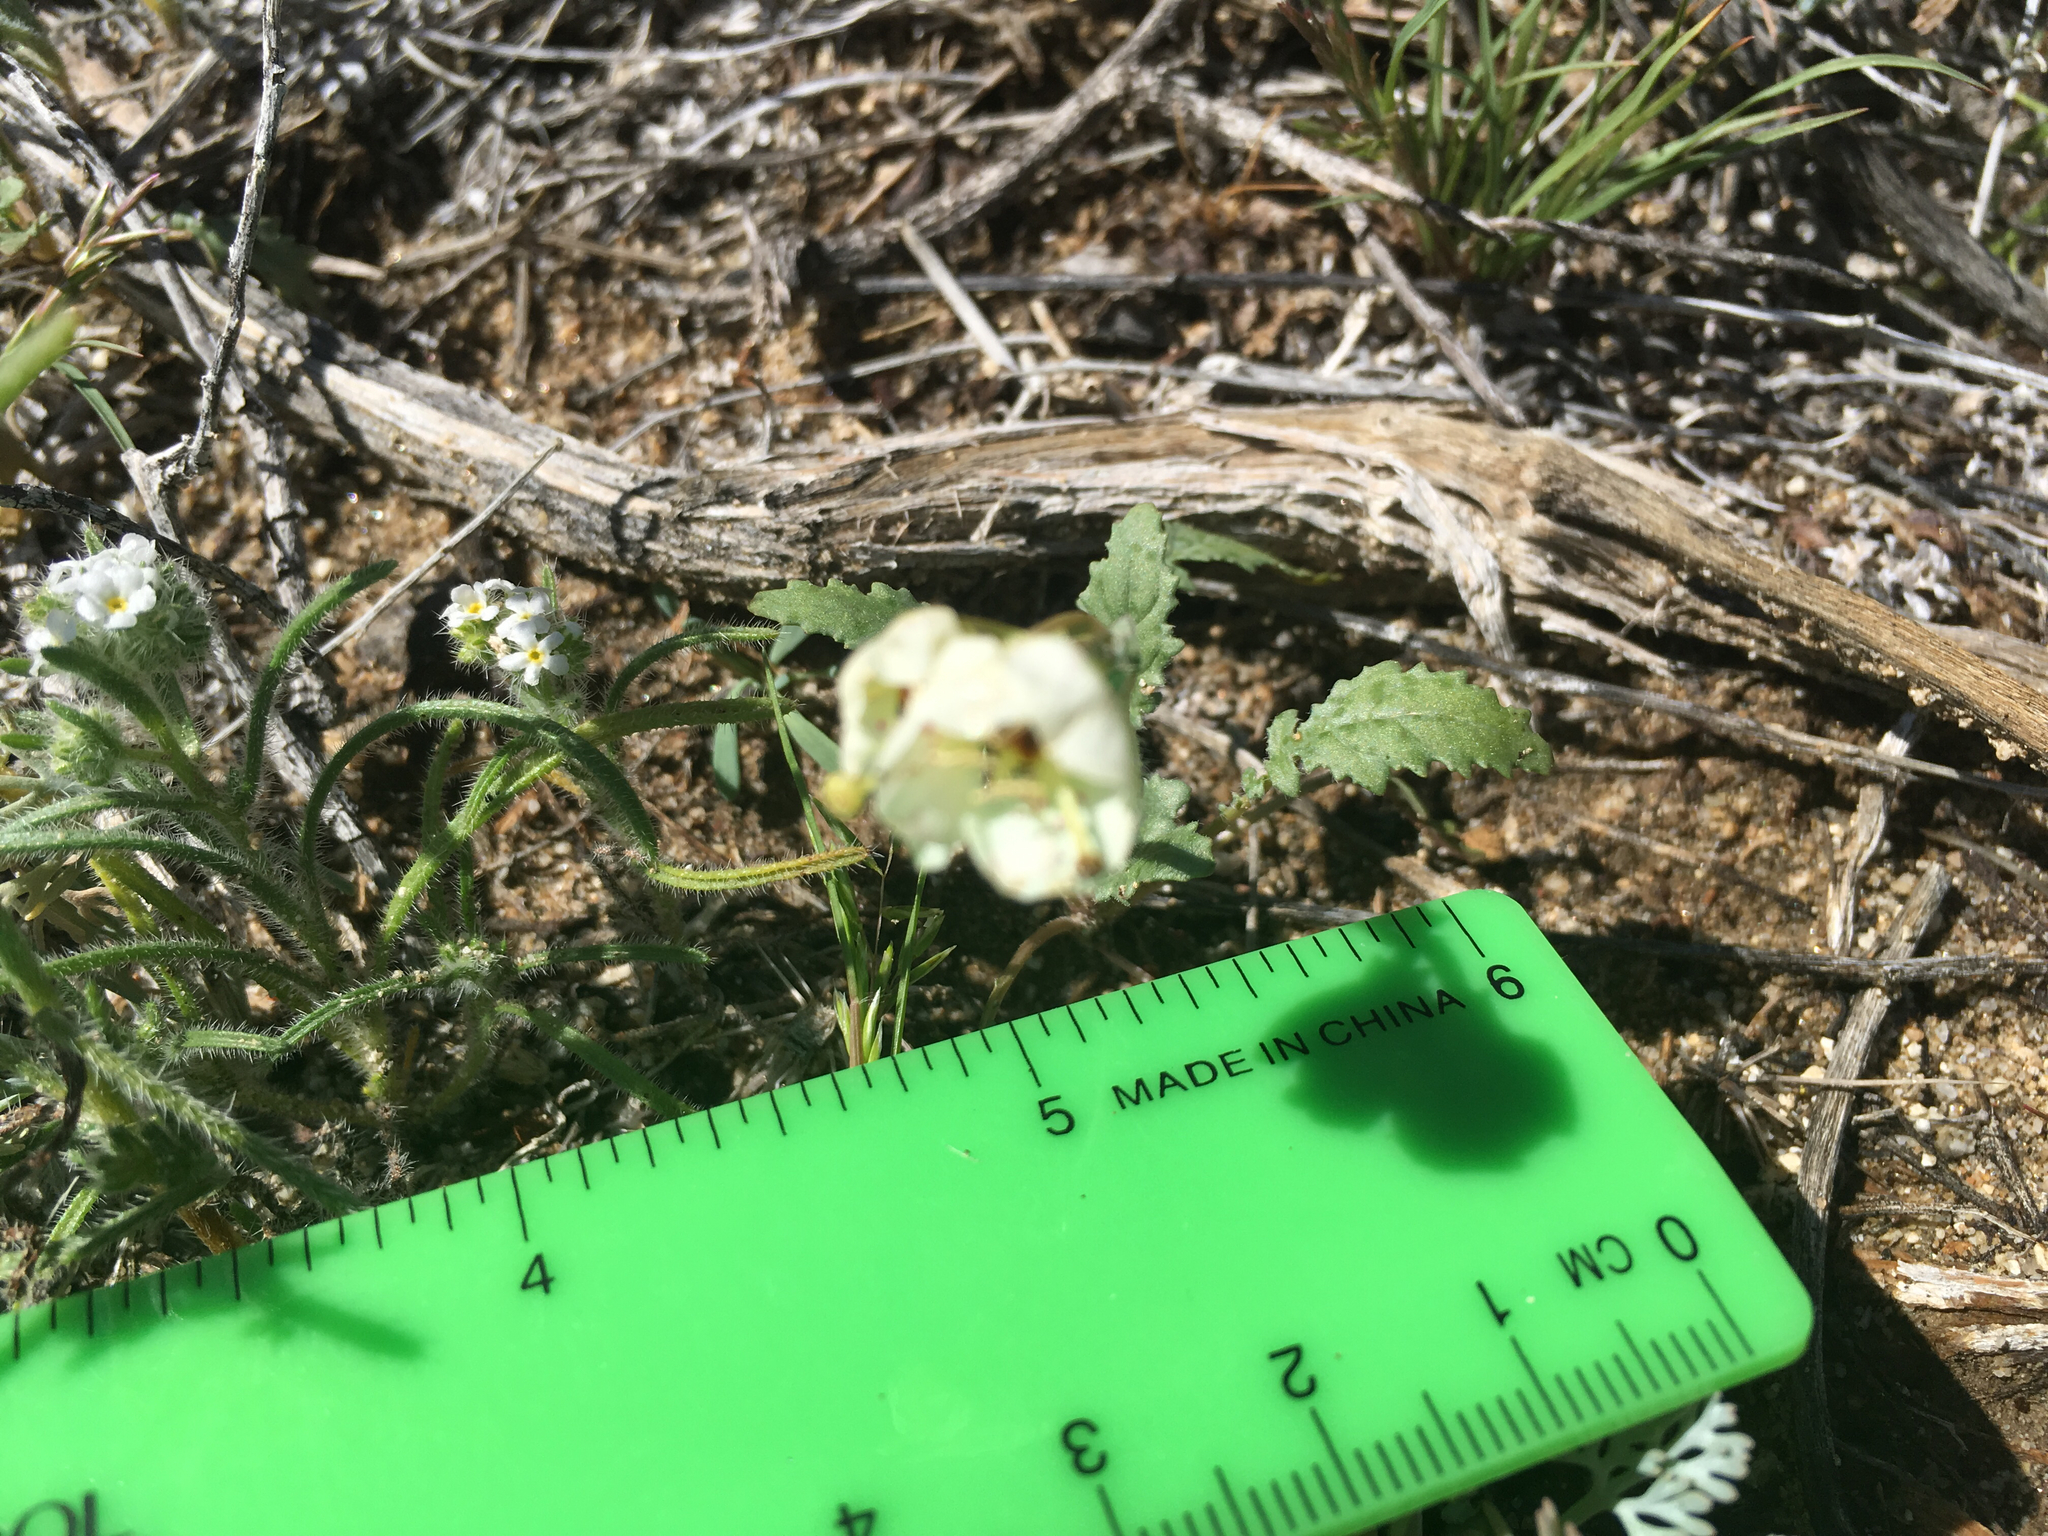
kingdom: Plantae
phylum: Tracheophyta
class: Magnoliopsida
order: Myrtales
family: Onagraceae
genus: Chylismia
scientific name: Chylismia claviformis
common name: Browneyes
